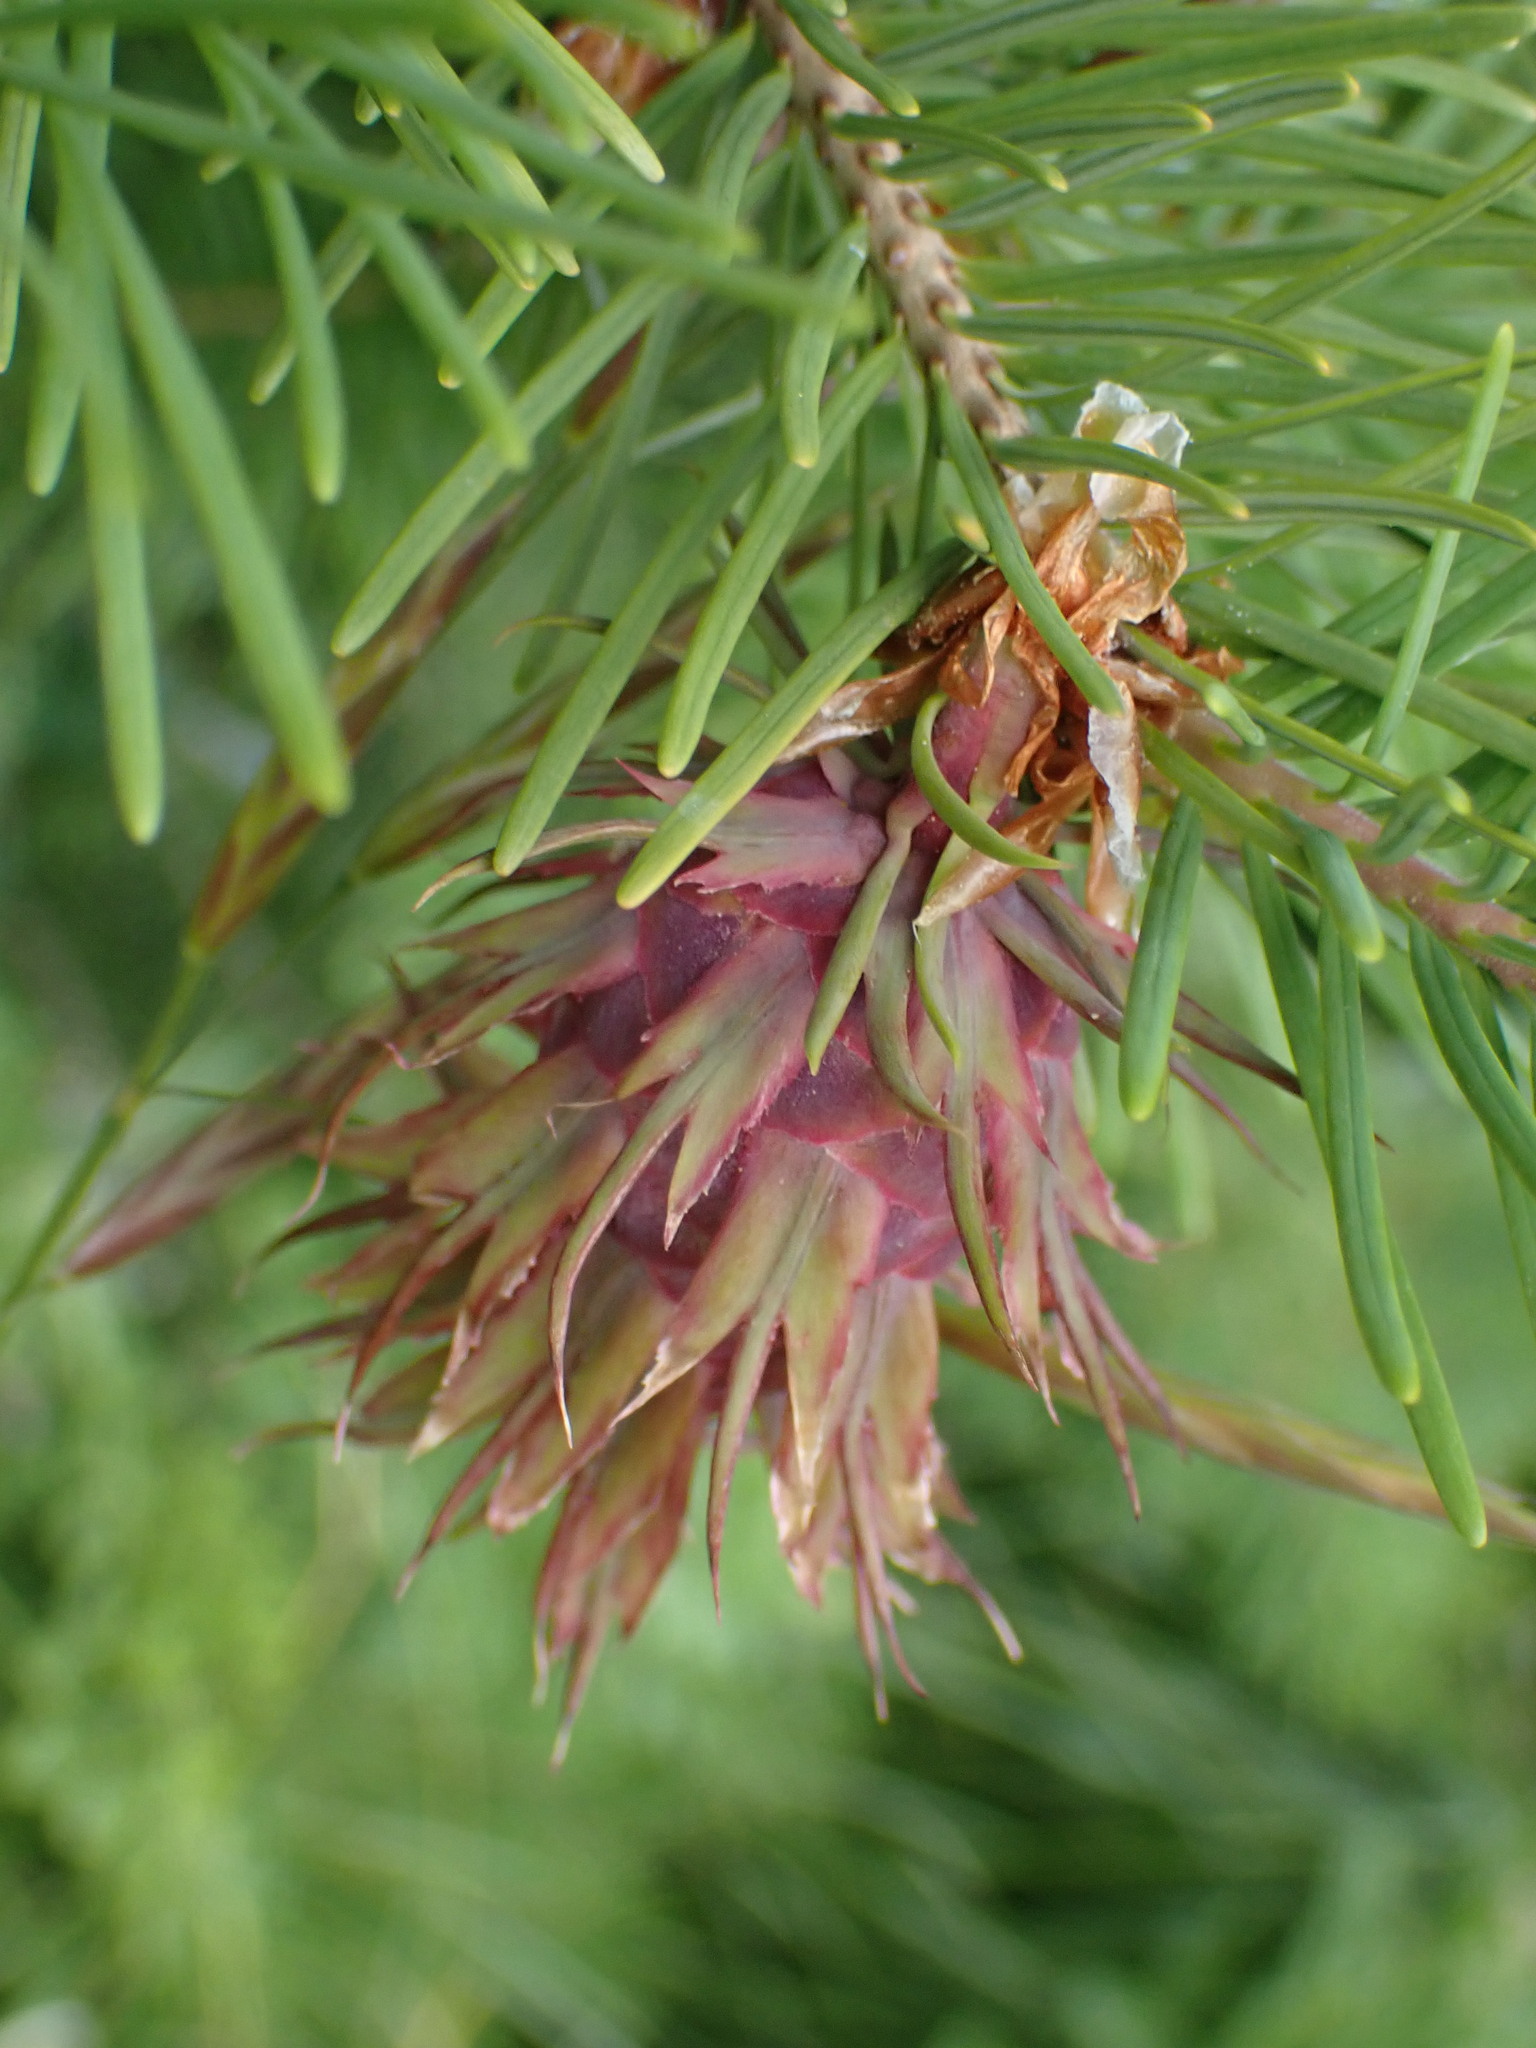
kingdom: Plantae
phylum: Tracheophyta
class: Pinopsida
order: Pinales
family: Pinaceae
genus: Pseudotsuga
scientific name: Pseudotsuga menziesii
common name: Douglas fir
